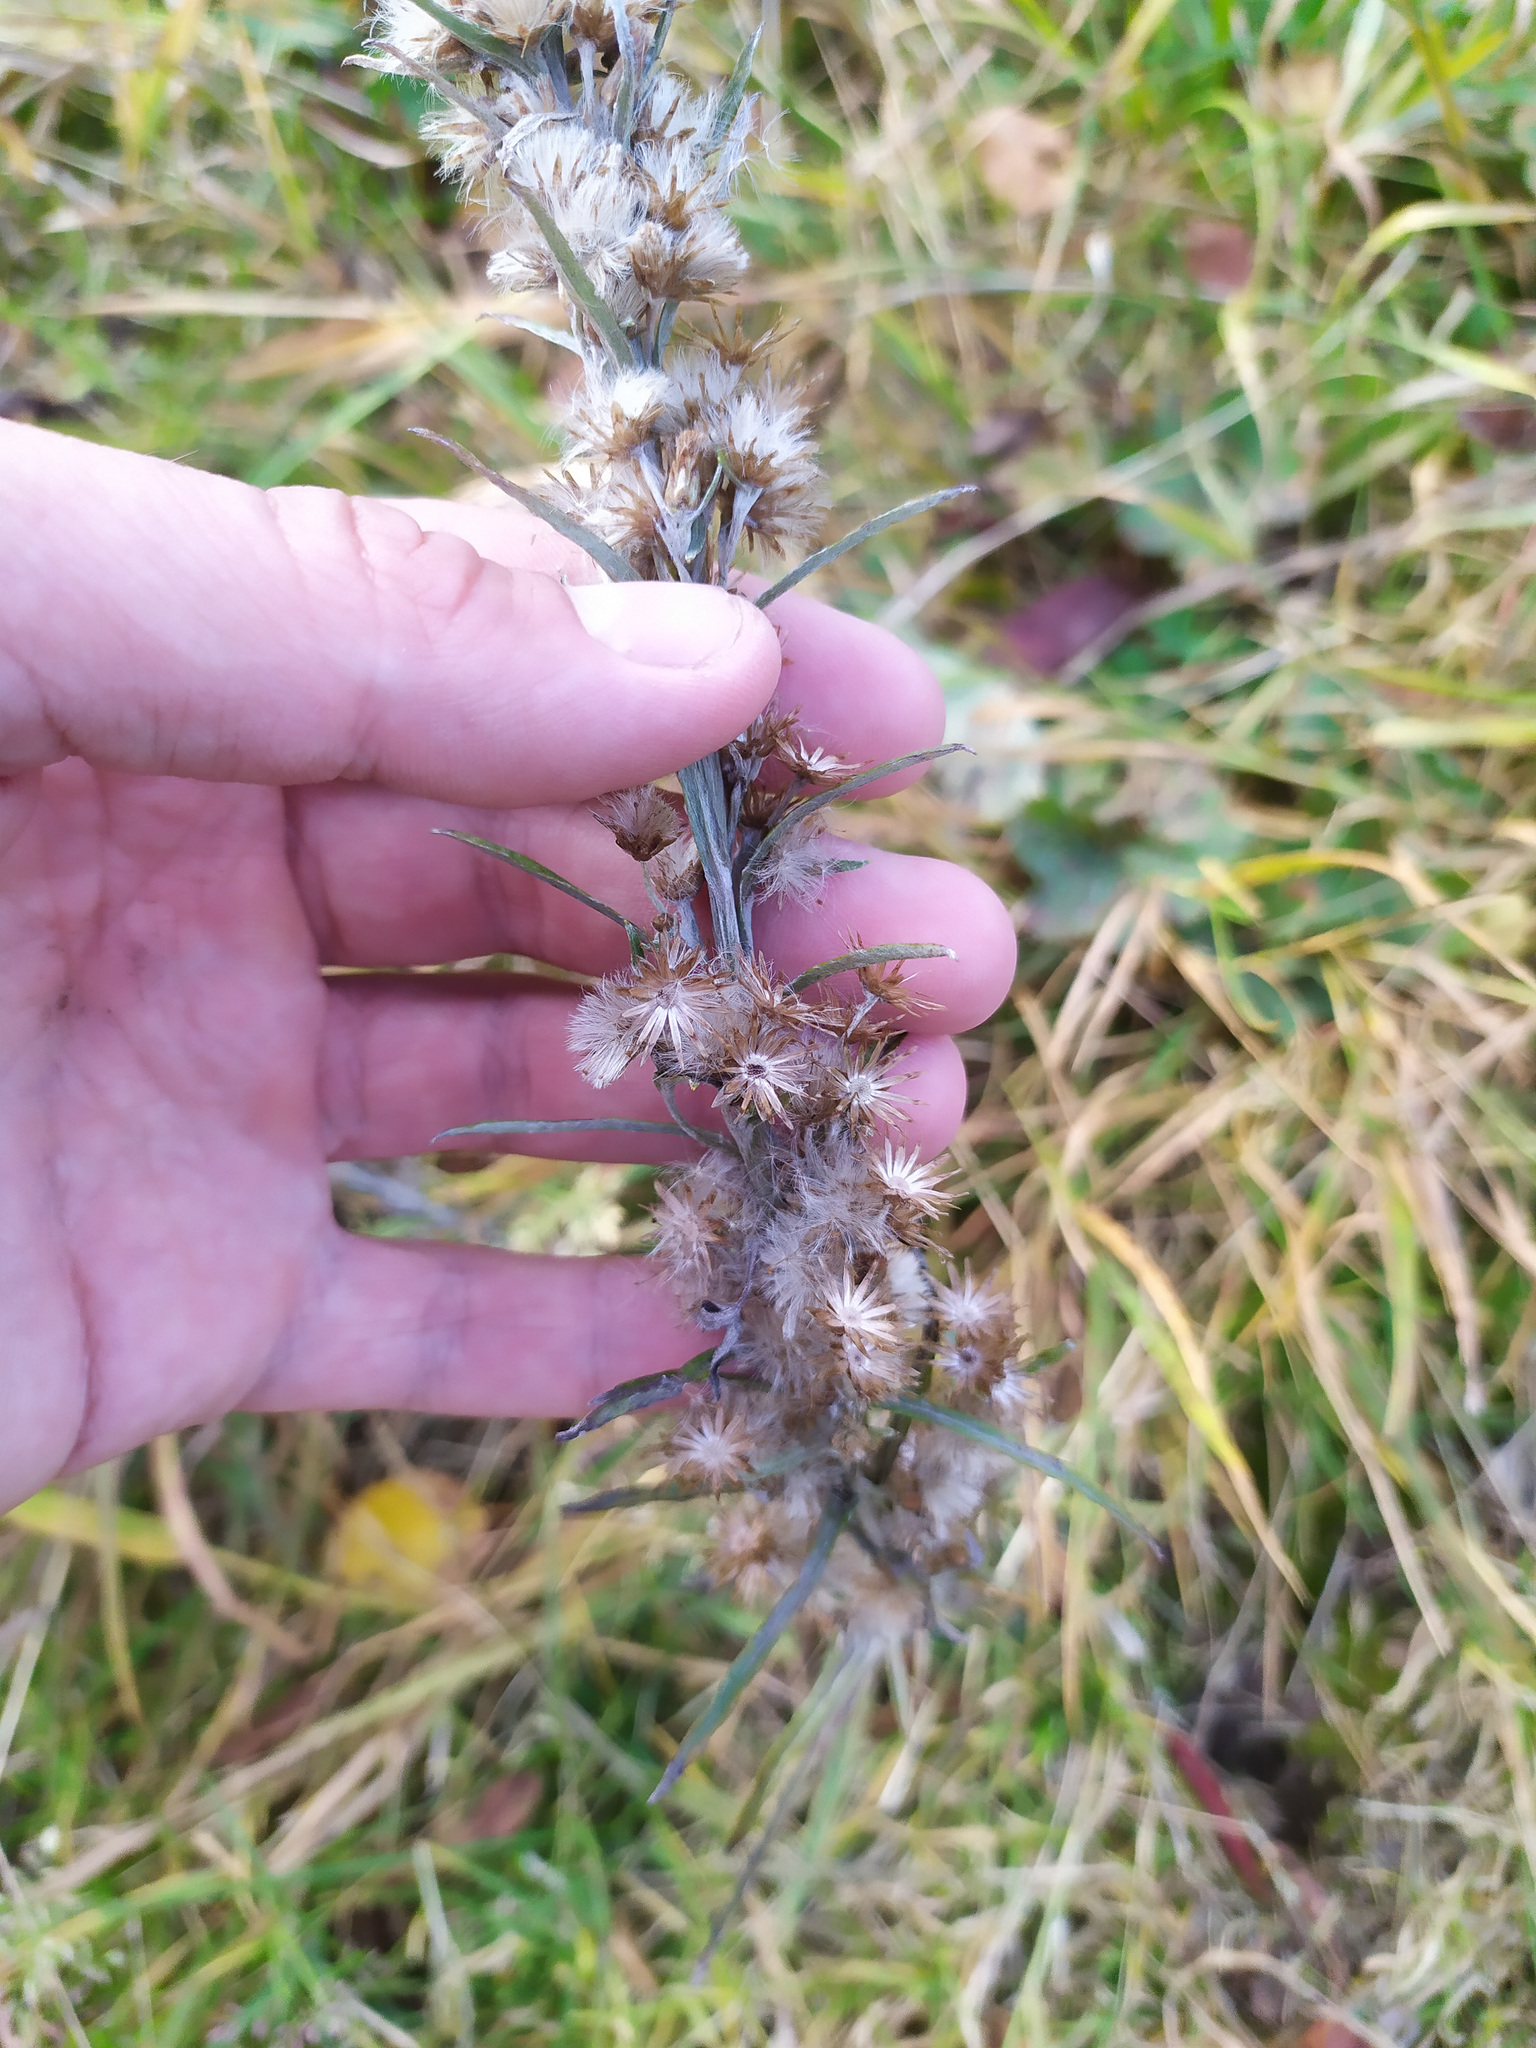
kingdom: Plantae
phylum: Tracheophyta
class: Magnoliopsida
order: Asterales
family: Asteraceae
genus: Omalotheca
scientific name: Omalotheca sylvatica
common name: Heath cudweed
